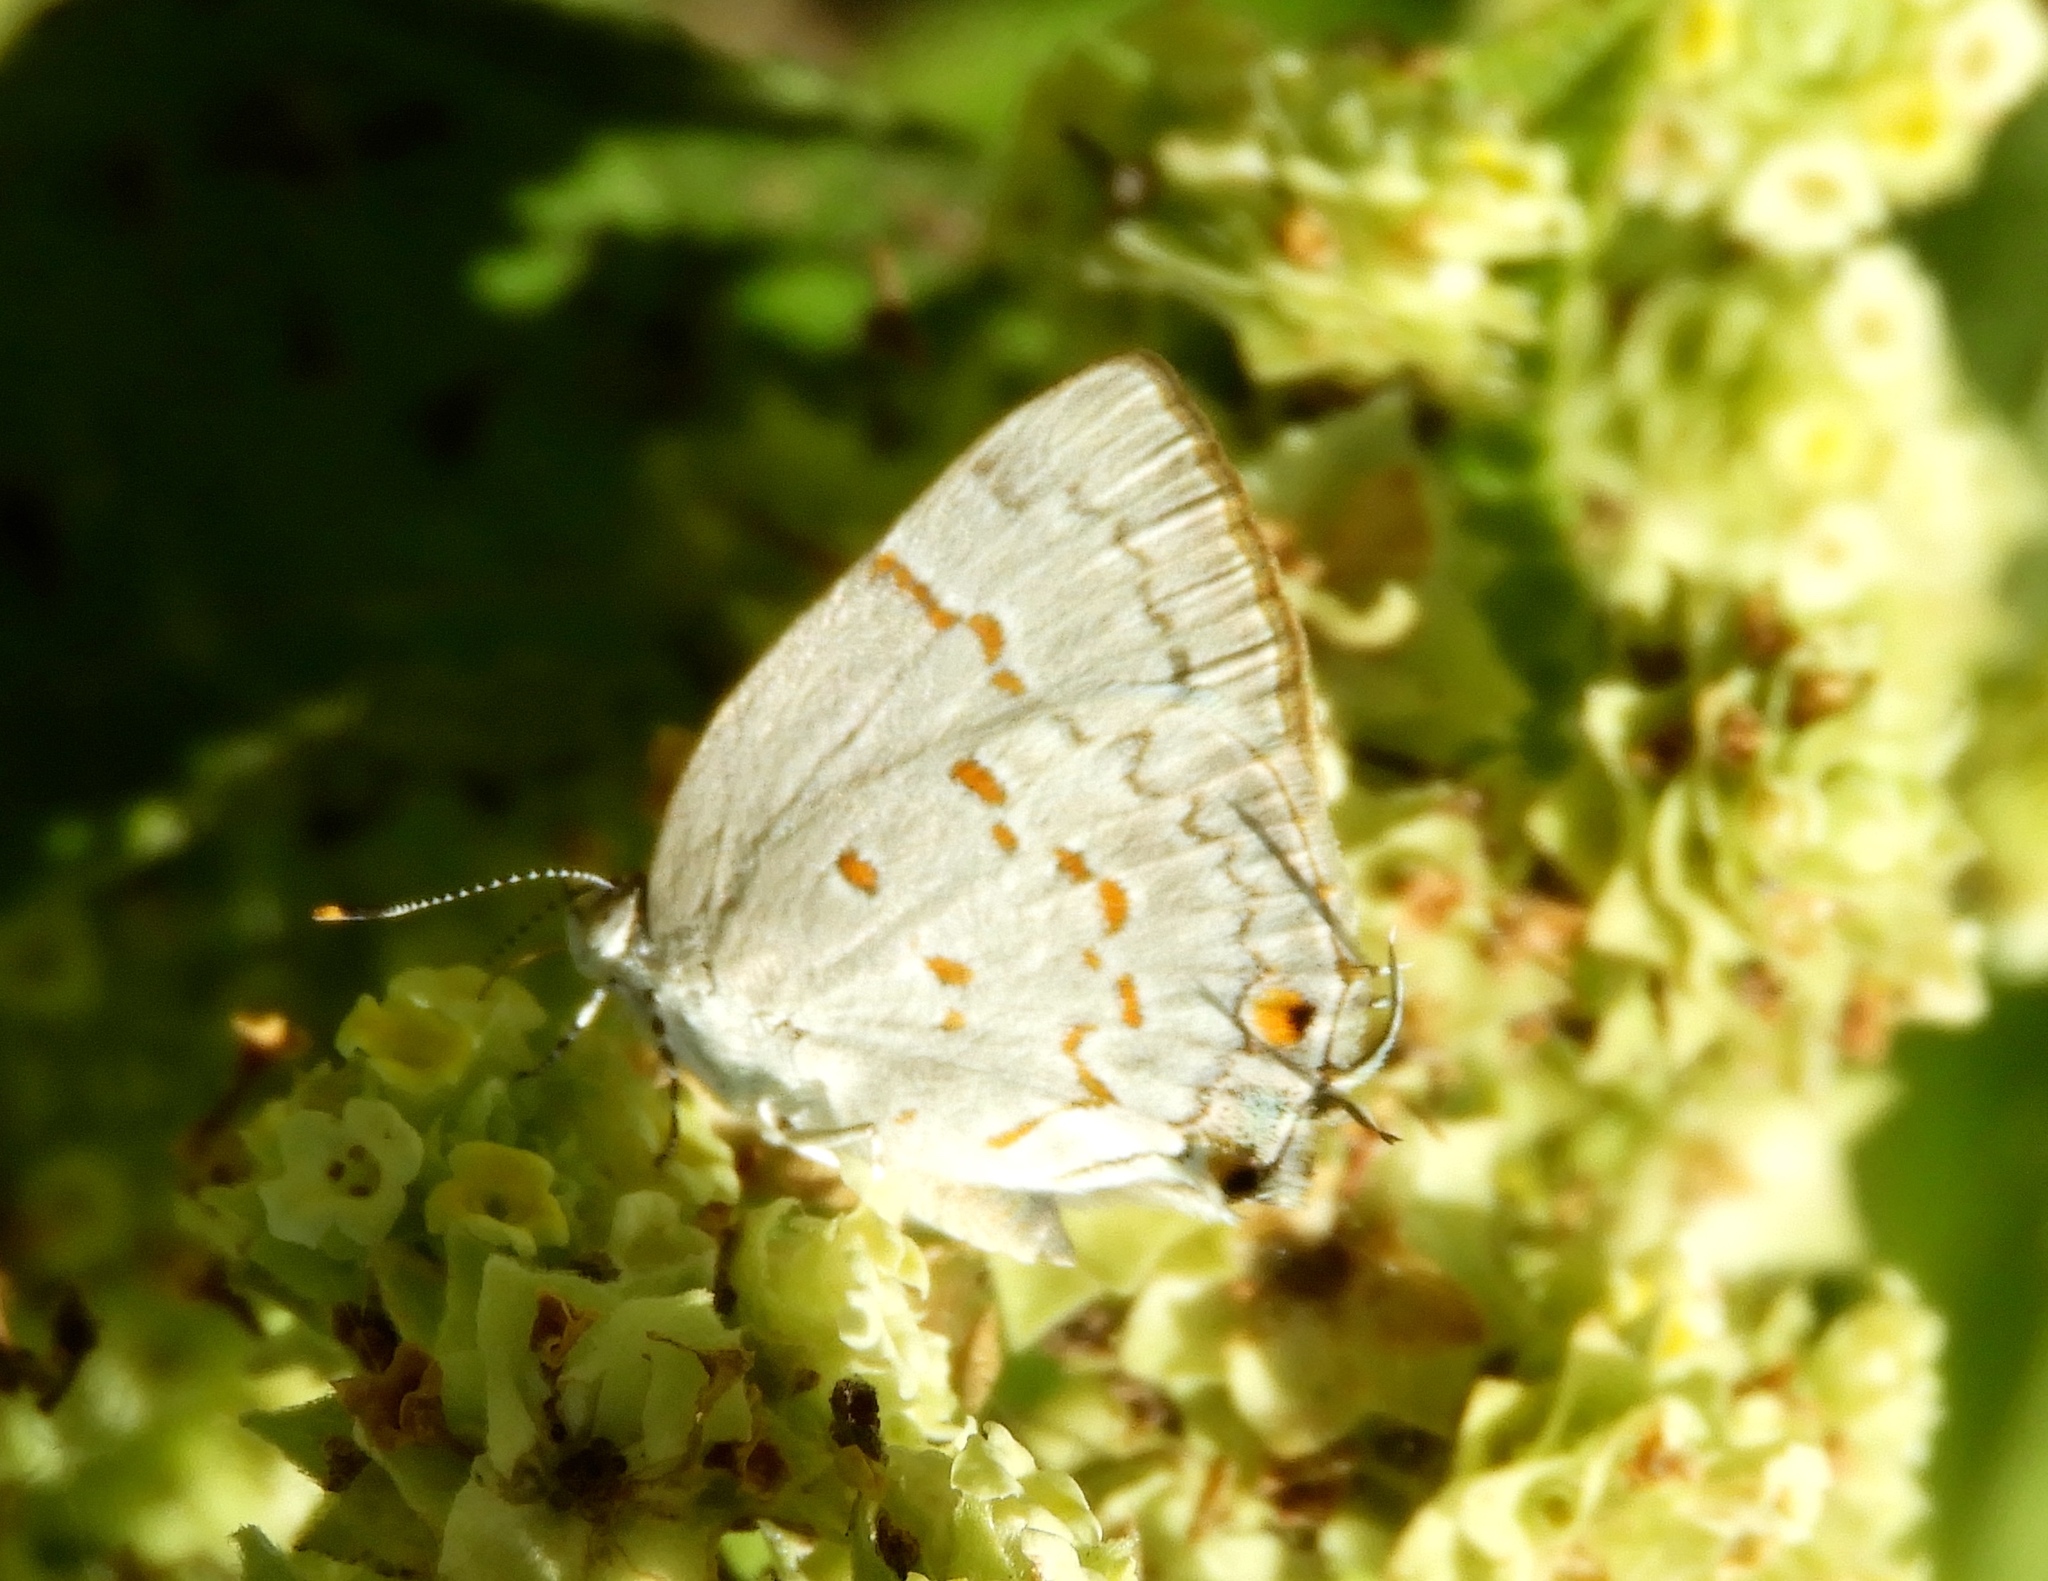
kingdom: Animalia
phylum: Arthropoda
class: Insecta
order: Lepidoptera
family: Lycaenidae
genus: Tmolus
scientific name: Tmolus crolinus
